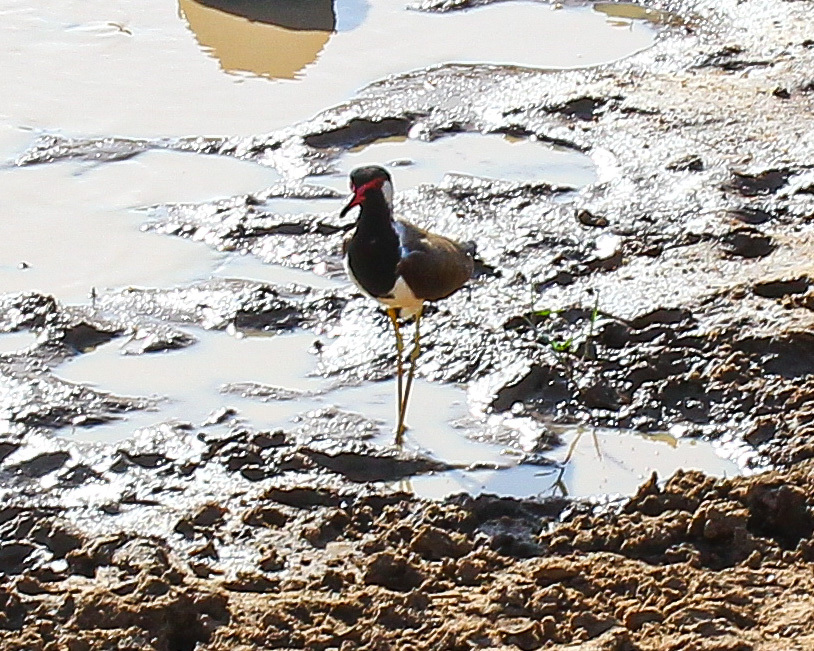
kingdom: Animalia
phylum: Chordata
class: Aves
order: Charadriiformes
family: Charadriidae
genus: Vanellus
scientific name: Vanellus indicus
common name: Red-wattled lapwing
